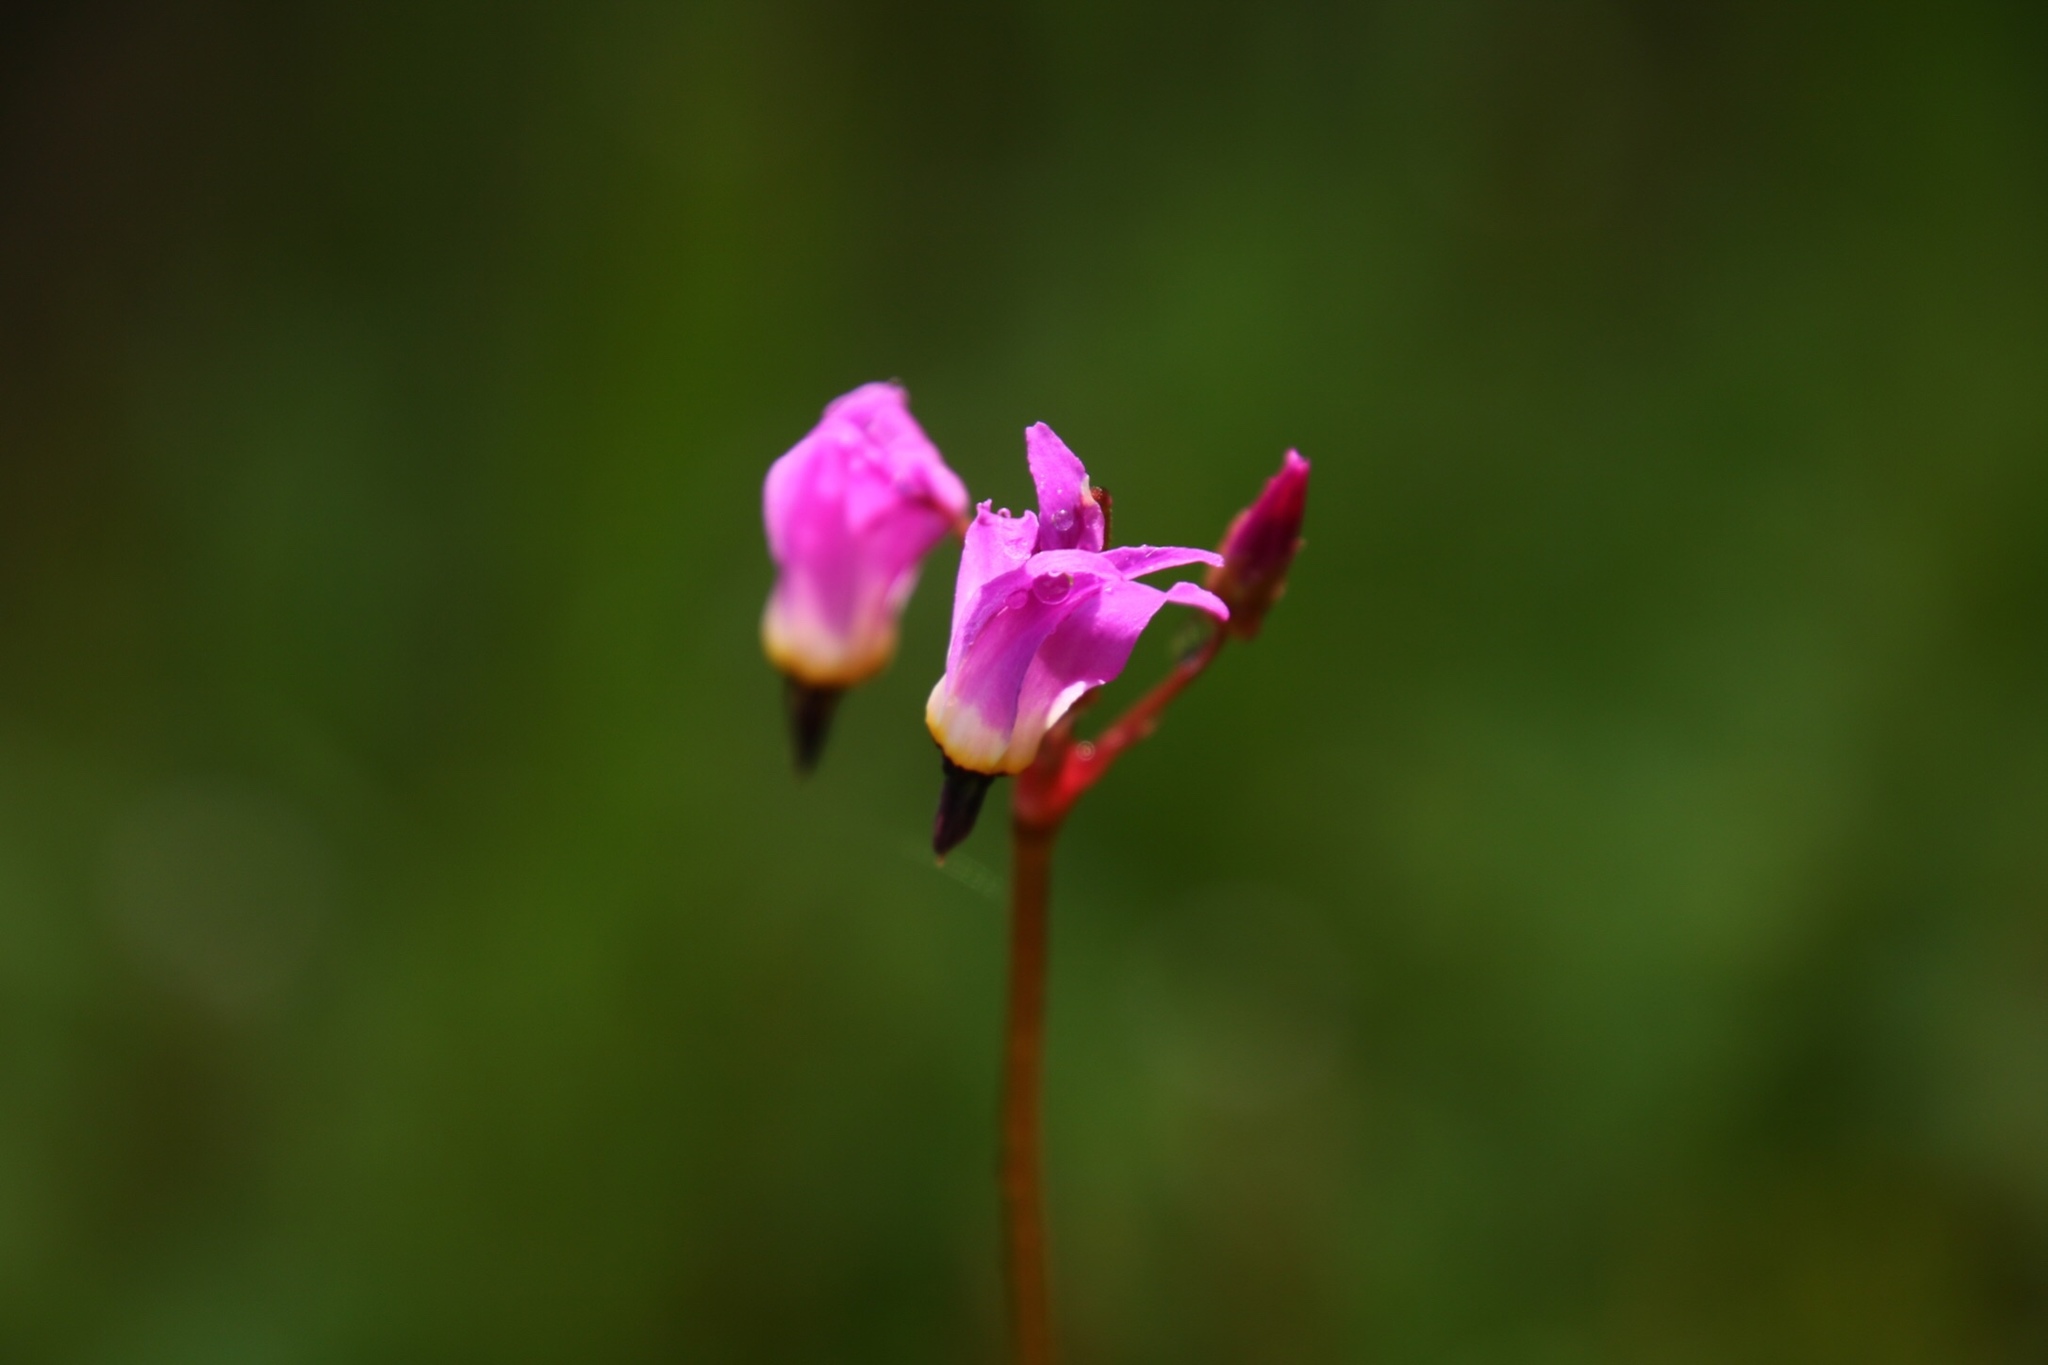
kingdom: Plantae
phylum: Tracheophyta
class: Magnoliopsida
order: Ericales
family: Primulaceae
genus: Dodecatheon
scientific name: Dodecatheon hendersonii
